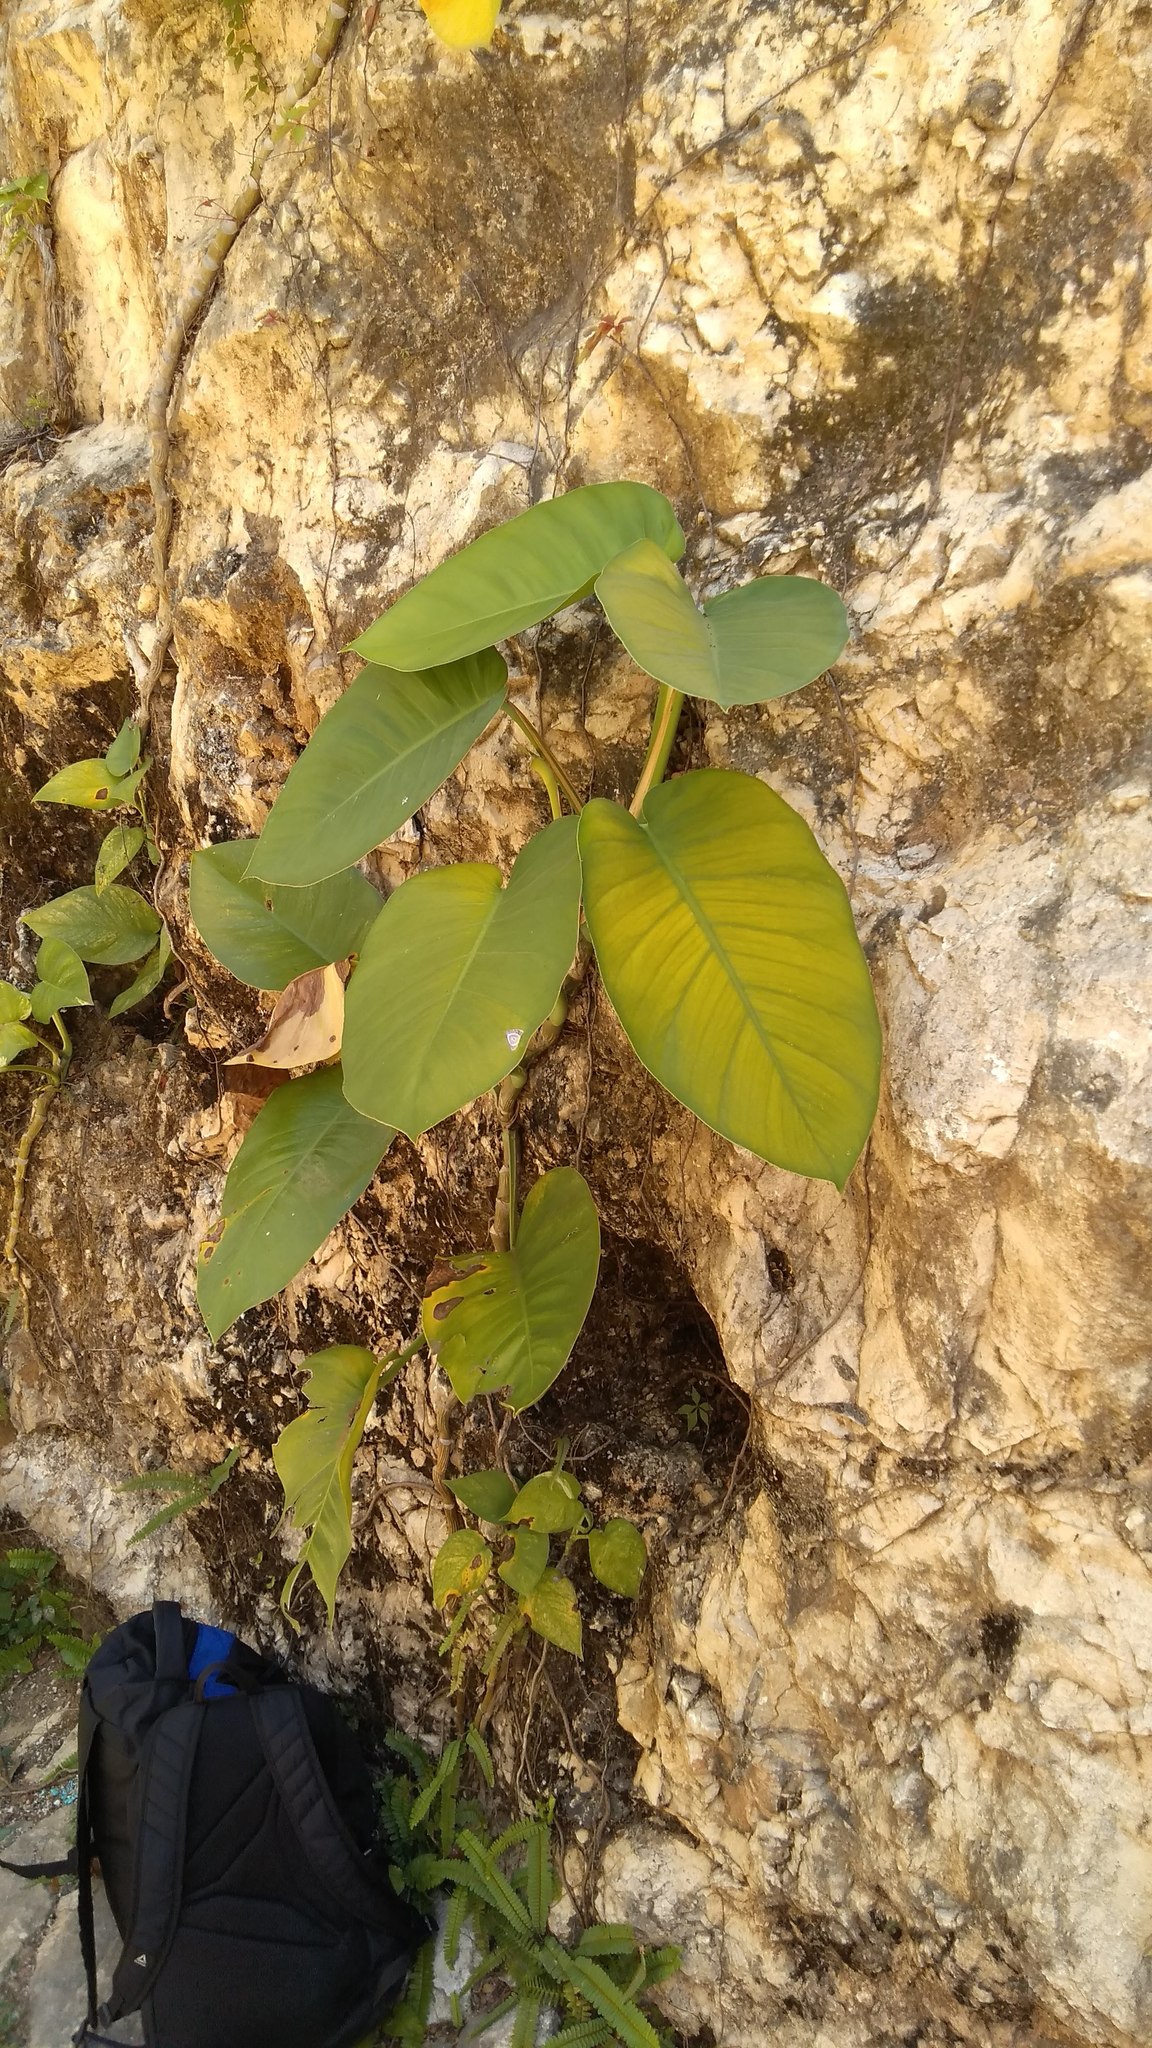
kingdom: Plantae
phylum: Tracheophyta
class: Liliopsida
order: Alismatales
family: Araceae
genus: Epipremnum
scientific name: Epipremnum aureum
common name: Golden hunter's-robe
